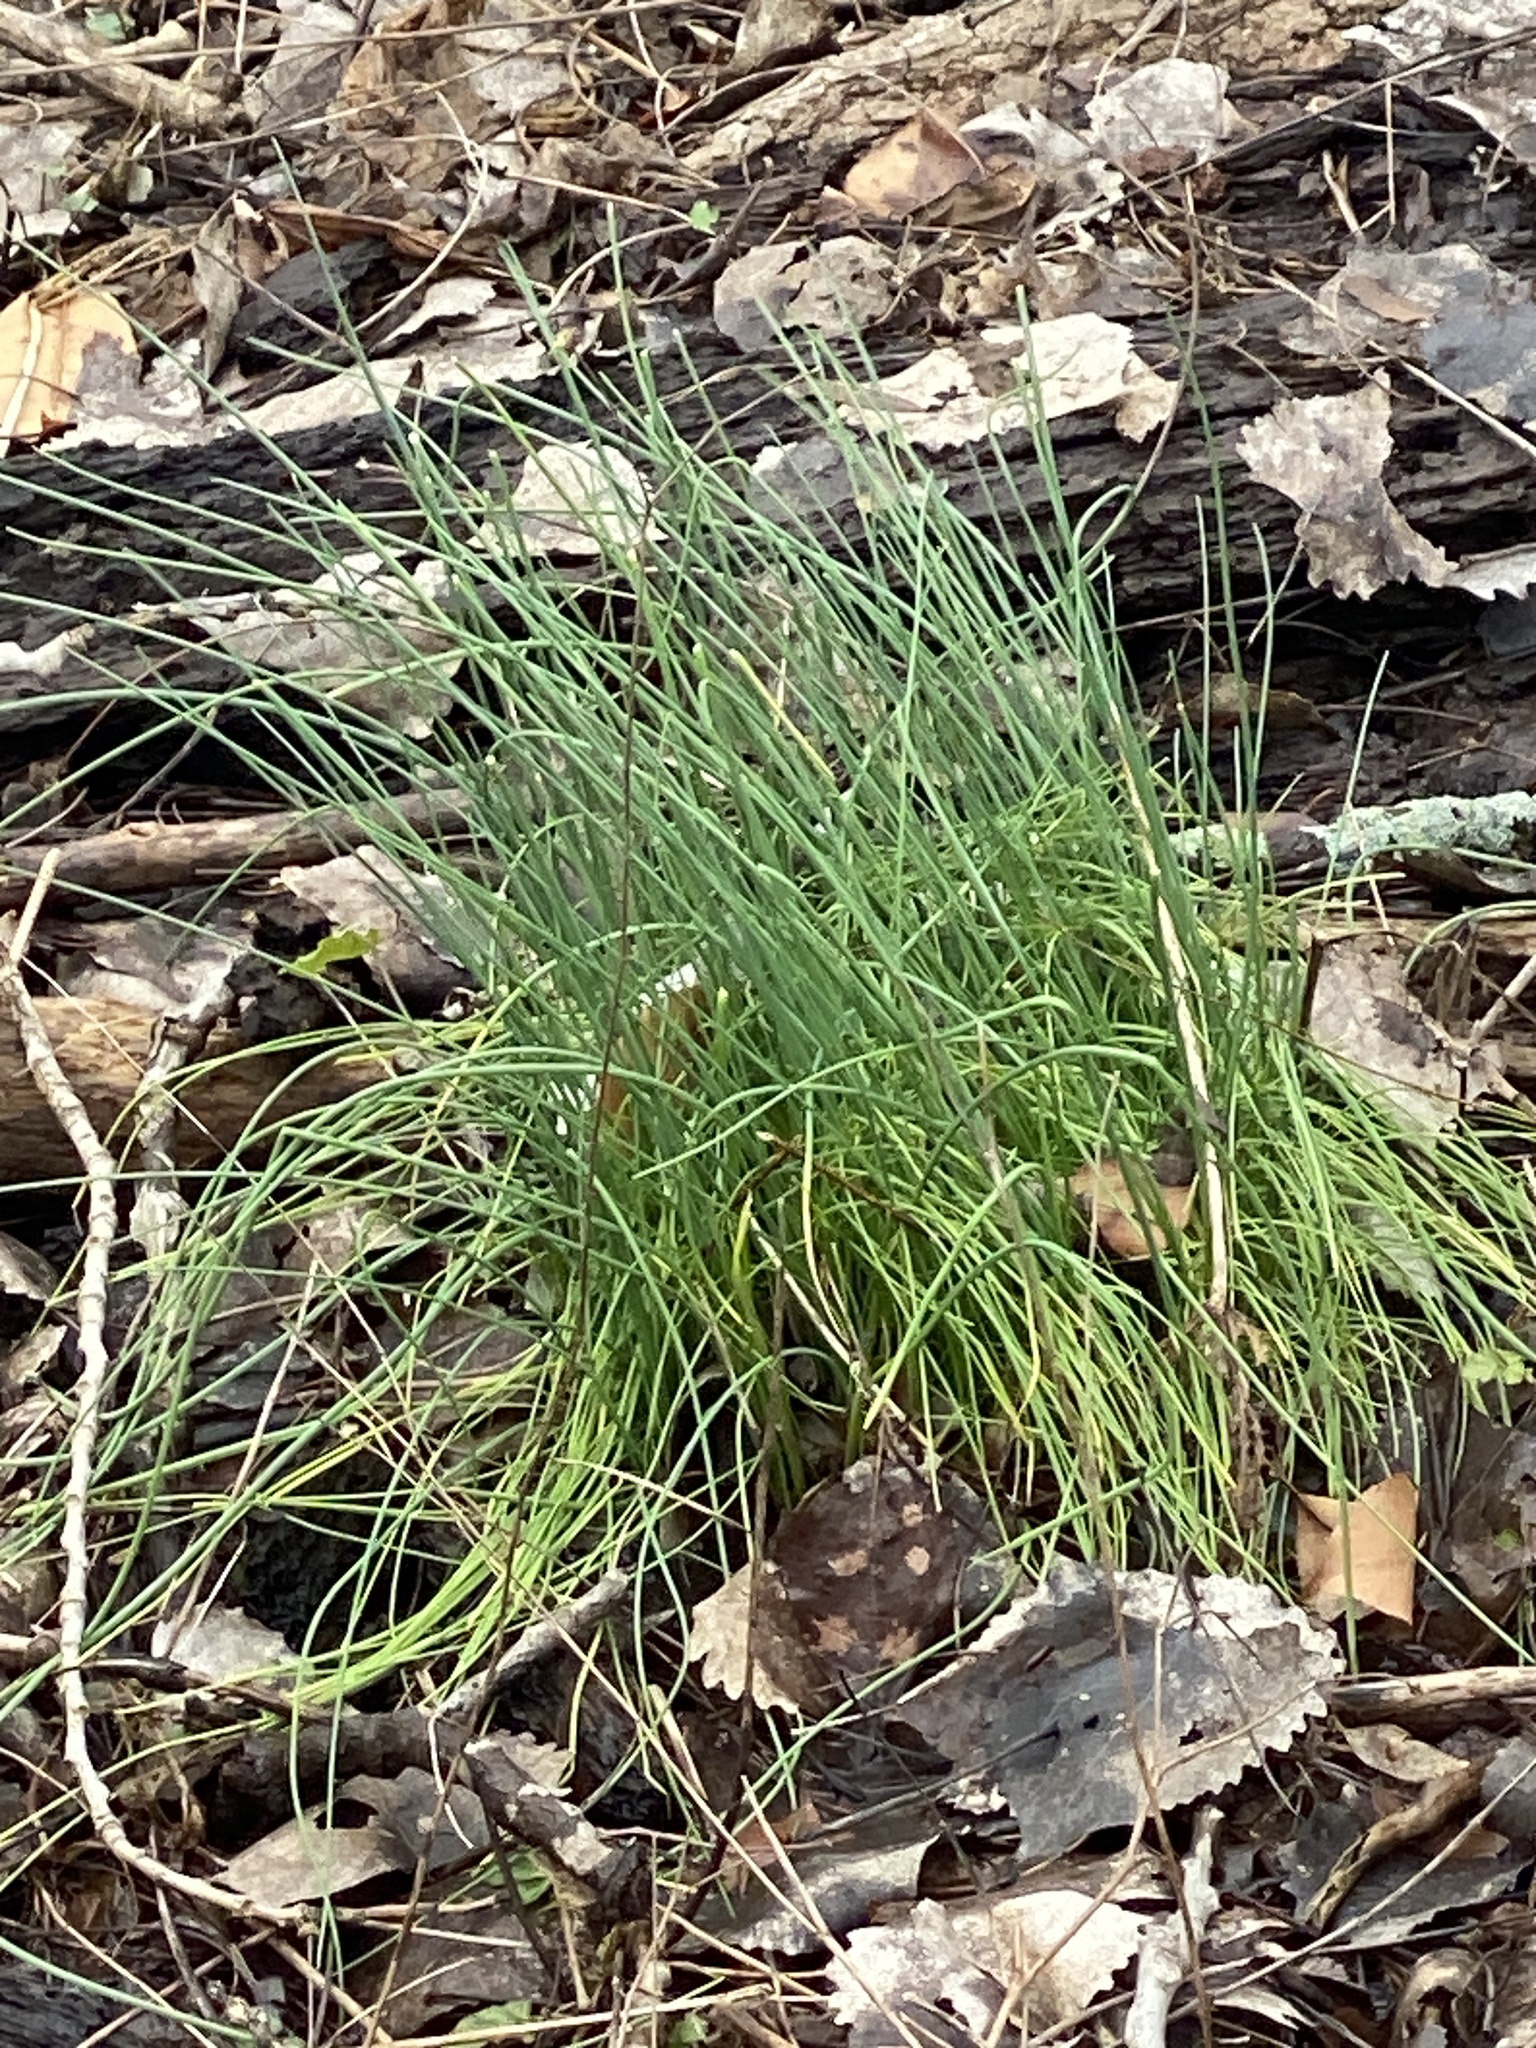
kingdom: Plantae
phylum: Tracheophyta
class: Liliopsida
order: Asparagales
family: Amaryllidaceae
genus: Allium
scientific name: Allium vineale
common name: Crow garlic
